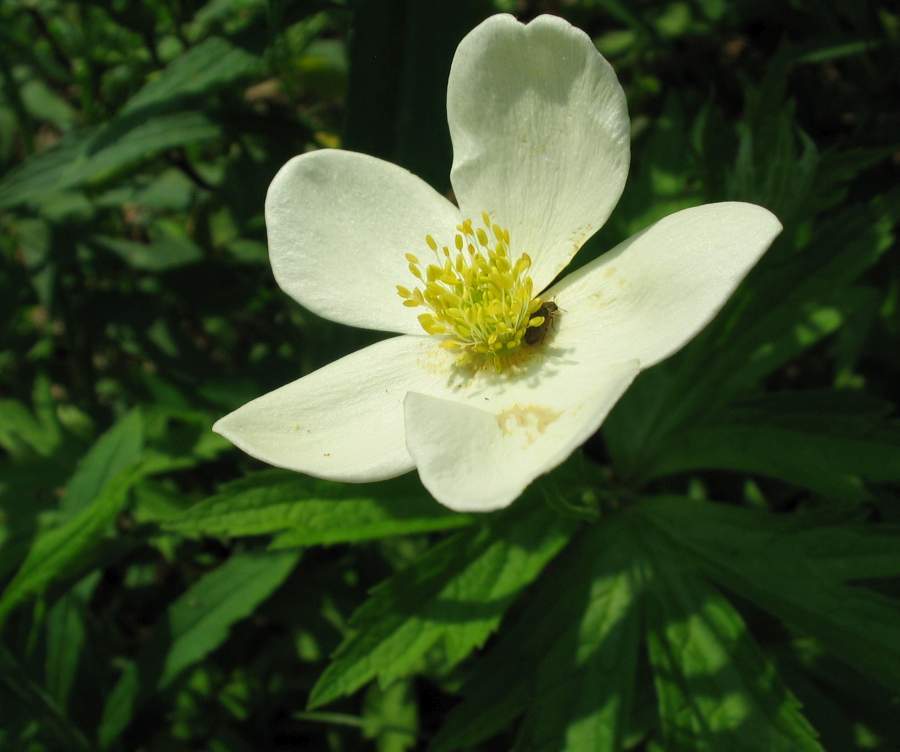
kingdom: Plantae
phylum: Tracheophyta
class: Magnoliopsida
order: Ranunculales
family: Ranunculaceae
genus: Anemonastrum
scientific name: Anemonastrum canadense
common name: Canada anemone
